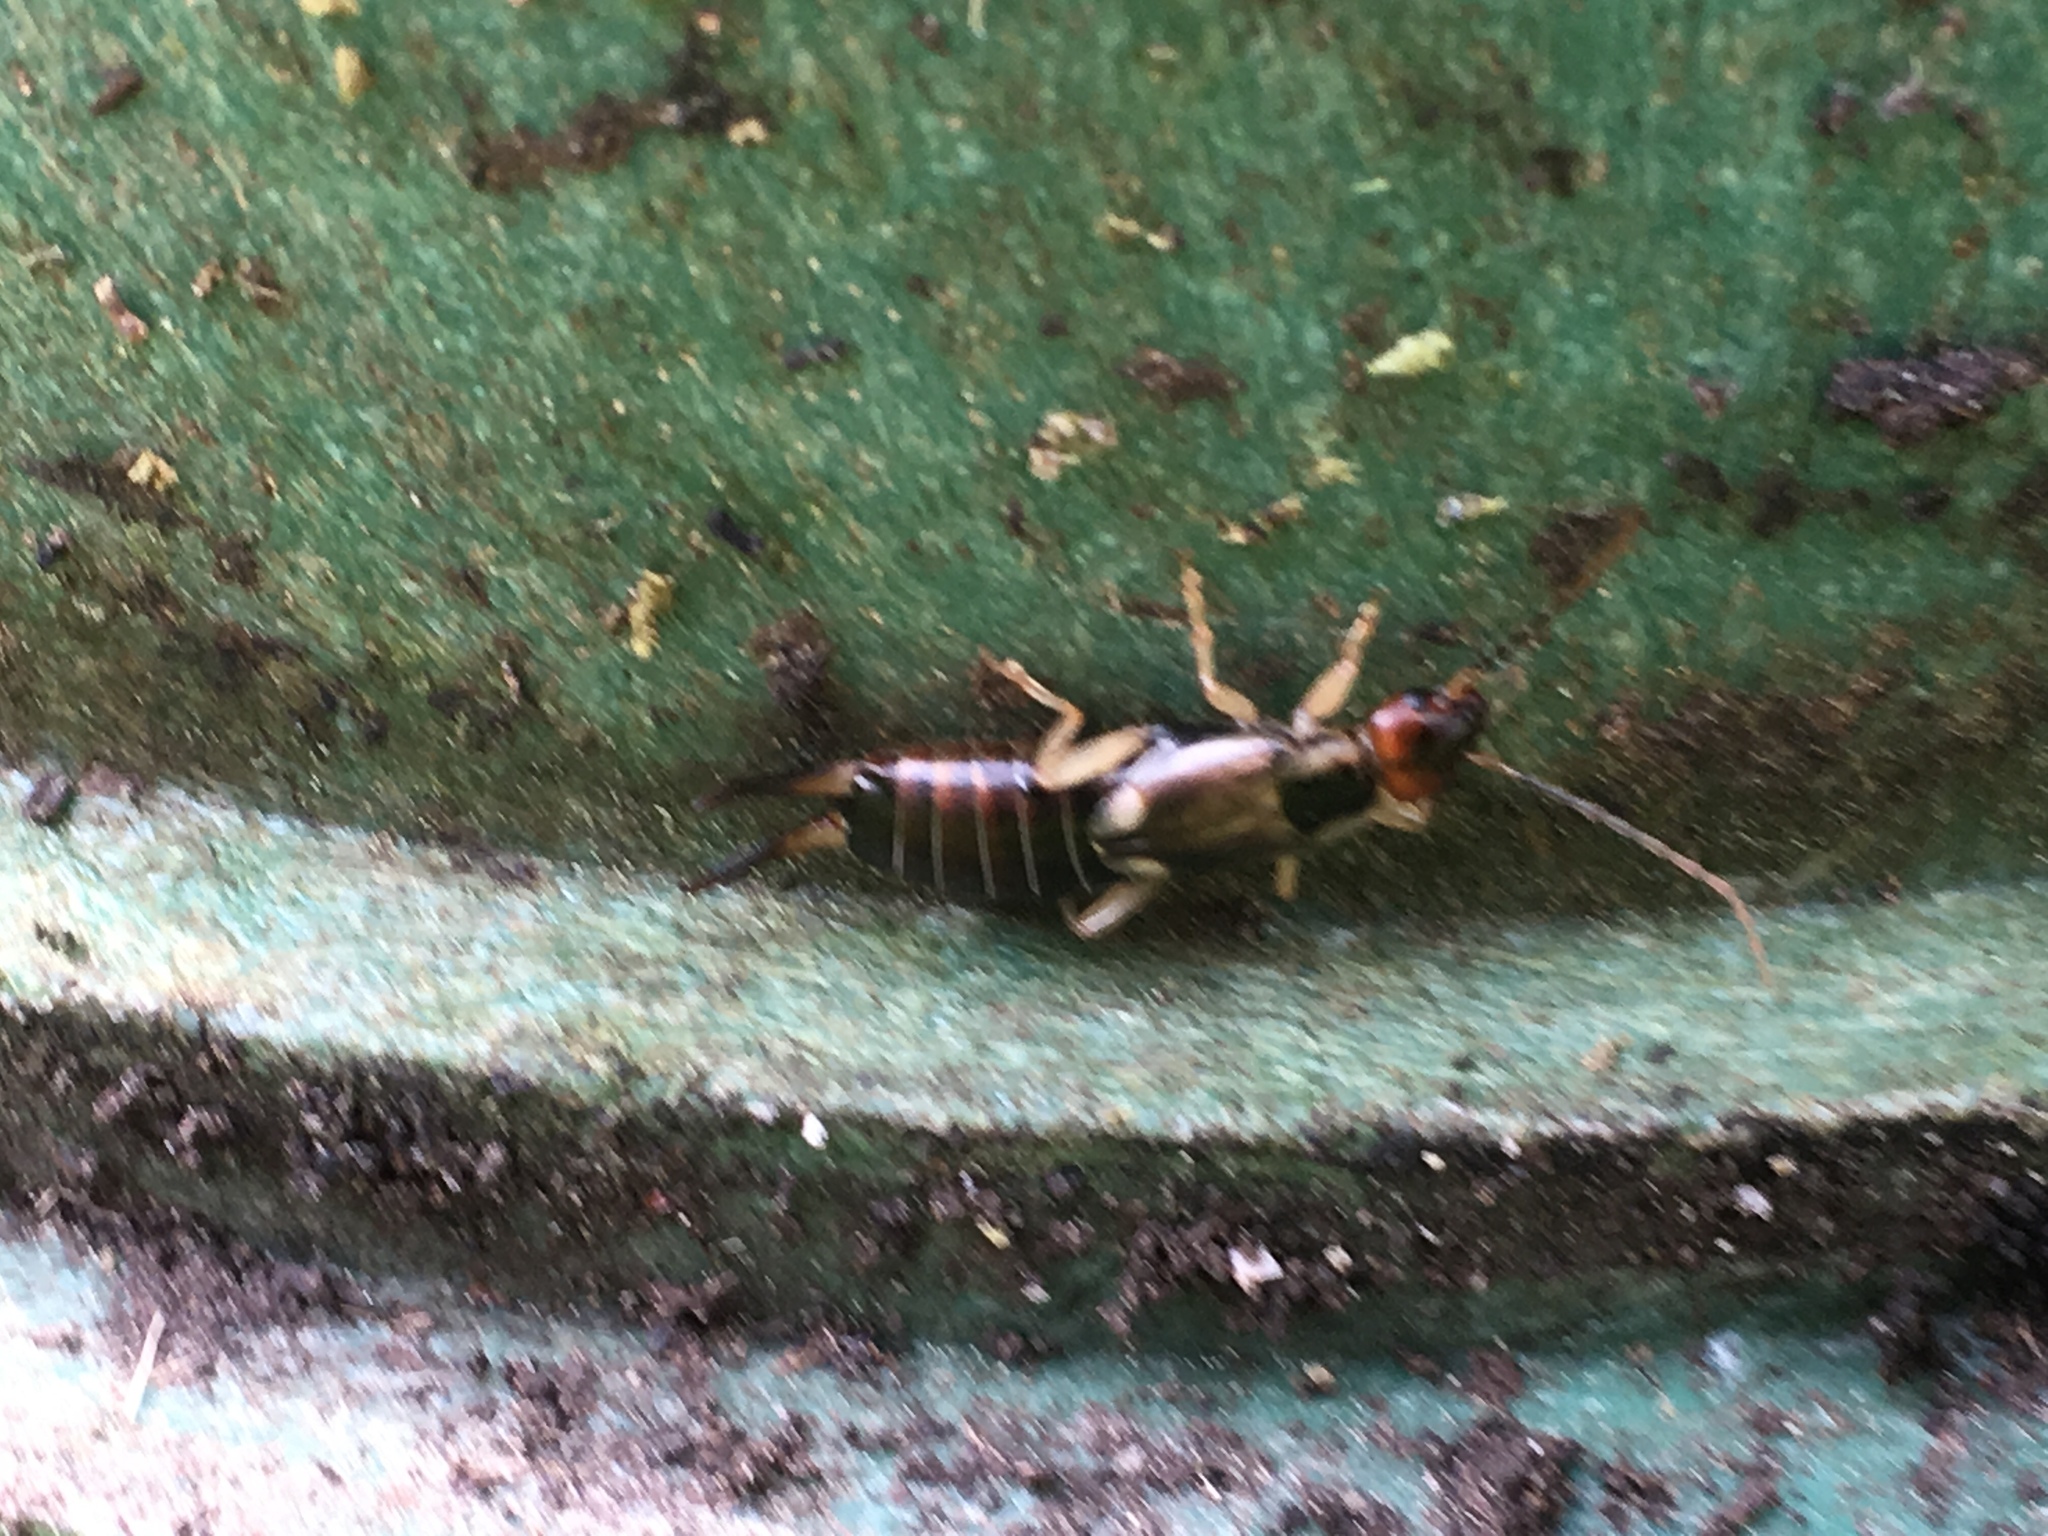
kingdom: Animalia
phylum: Arthropoda
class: Insecta
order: Dermaptera
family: Forficulidae
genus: Forficula
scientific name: Forficula
